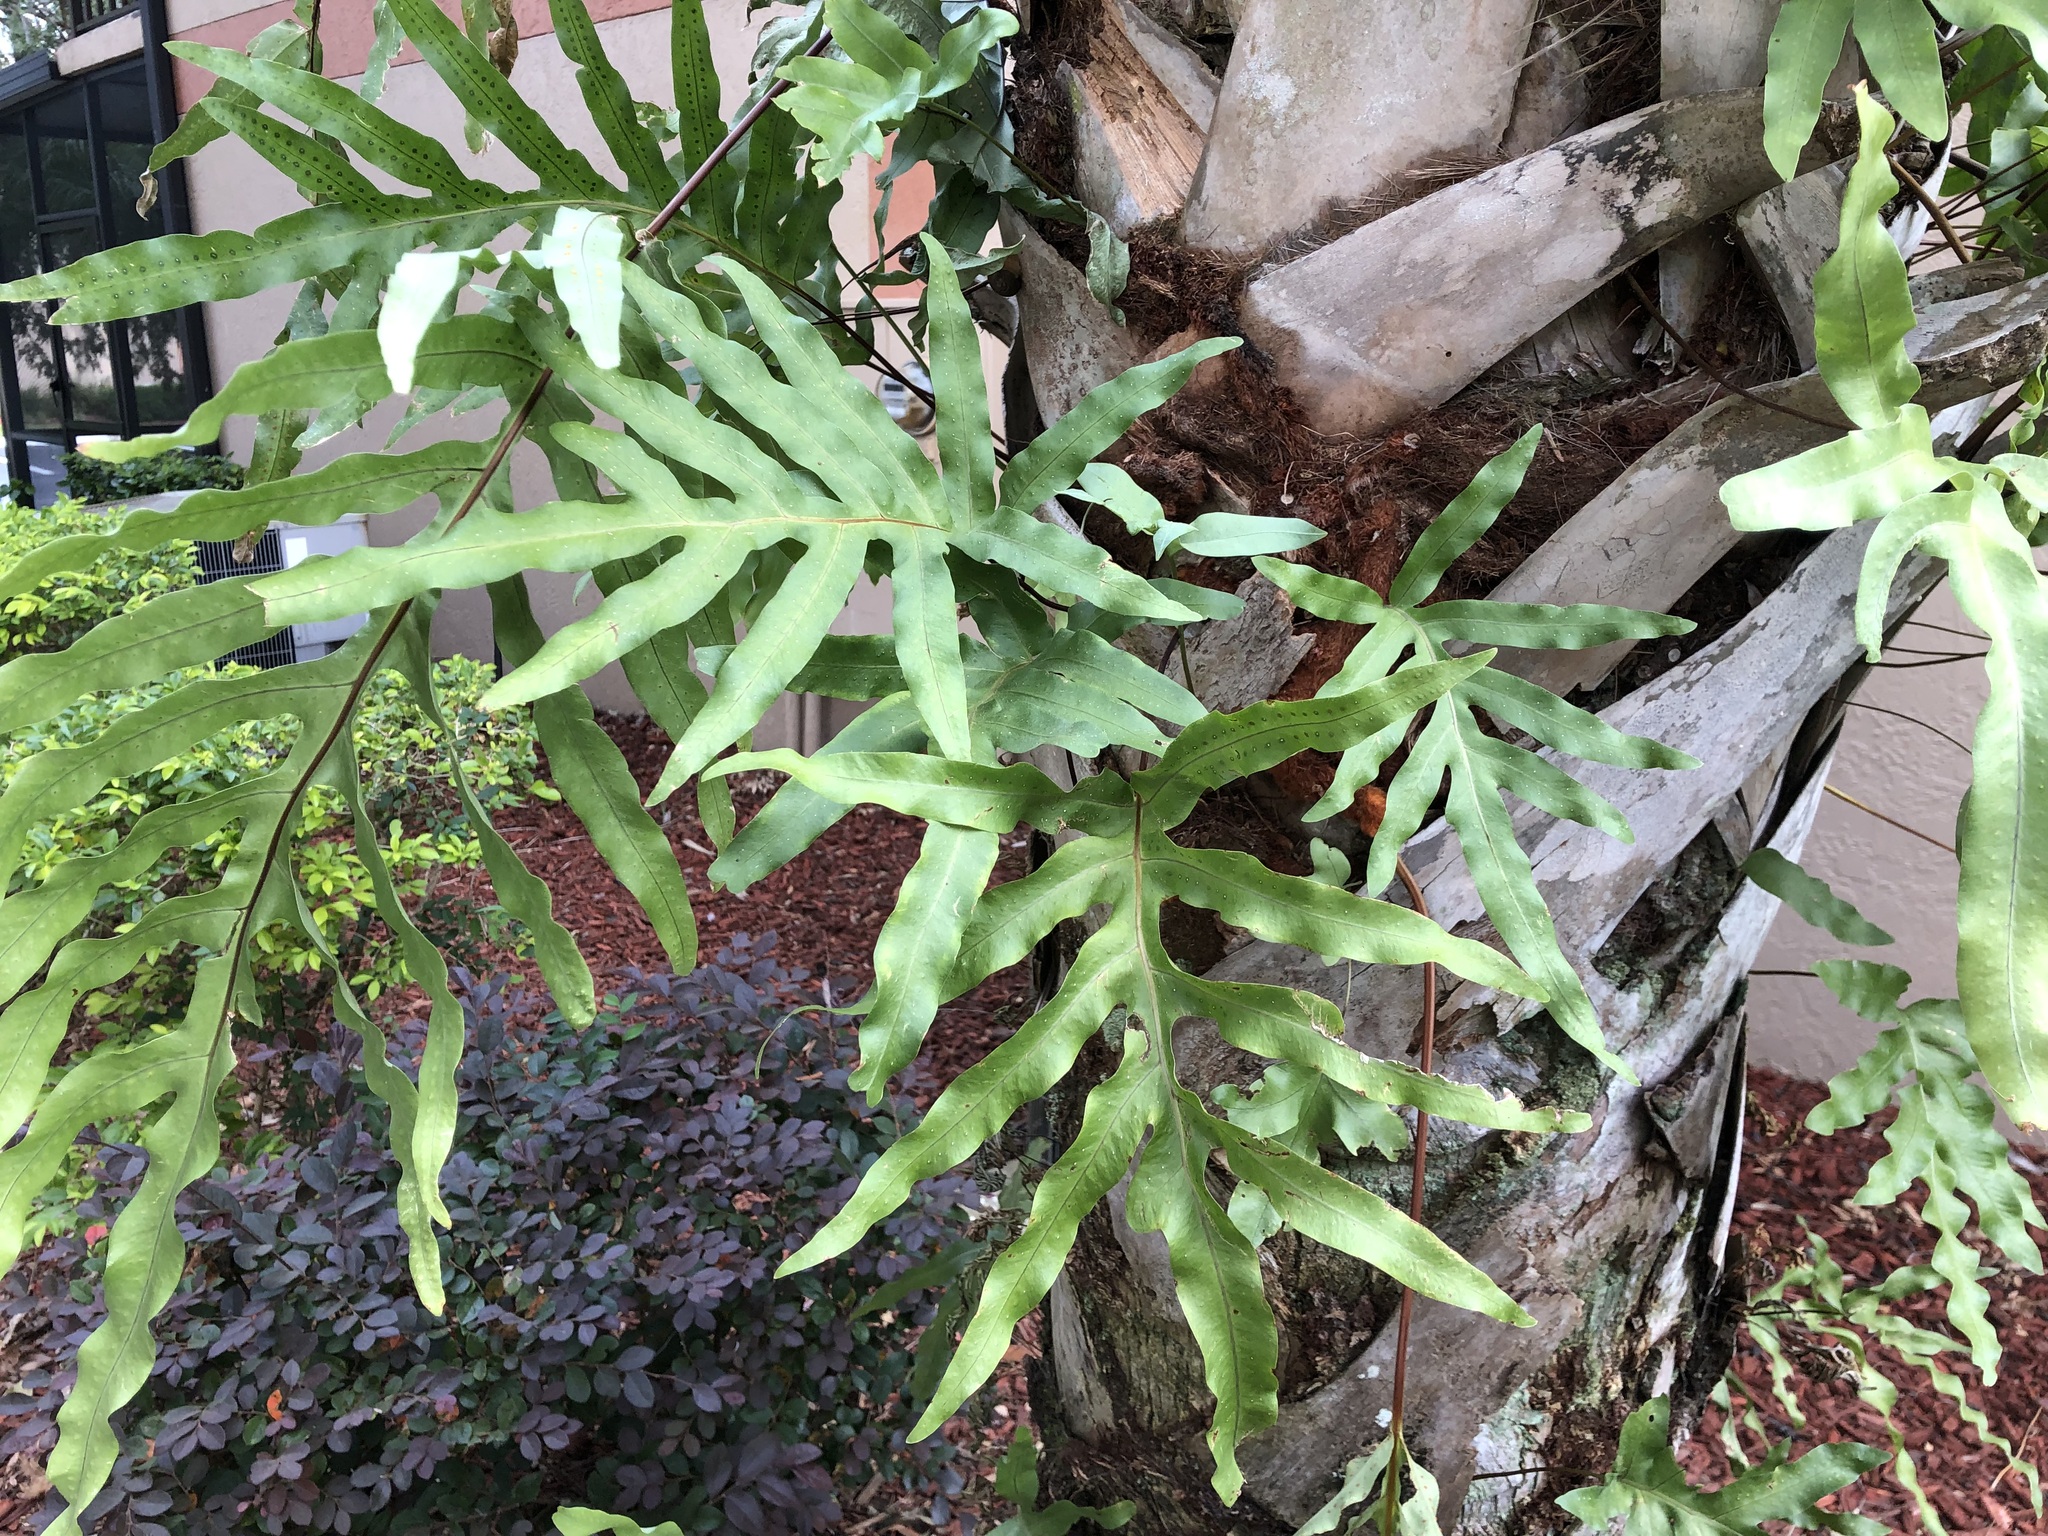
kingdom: Plantae
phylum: Tracheophyta
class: Polypodiopsida
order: Polypodiales
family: Polypodiaceae
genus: Phlebodium
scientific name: Phlebodium aureum
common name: Gold-foot fern
